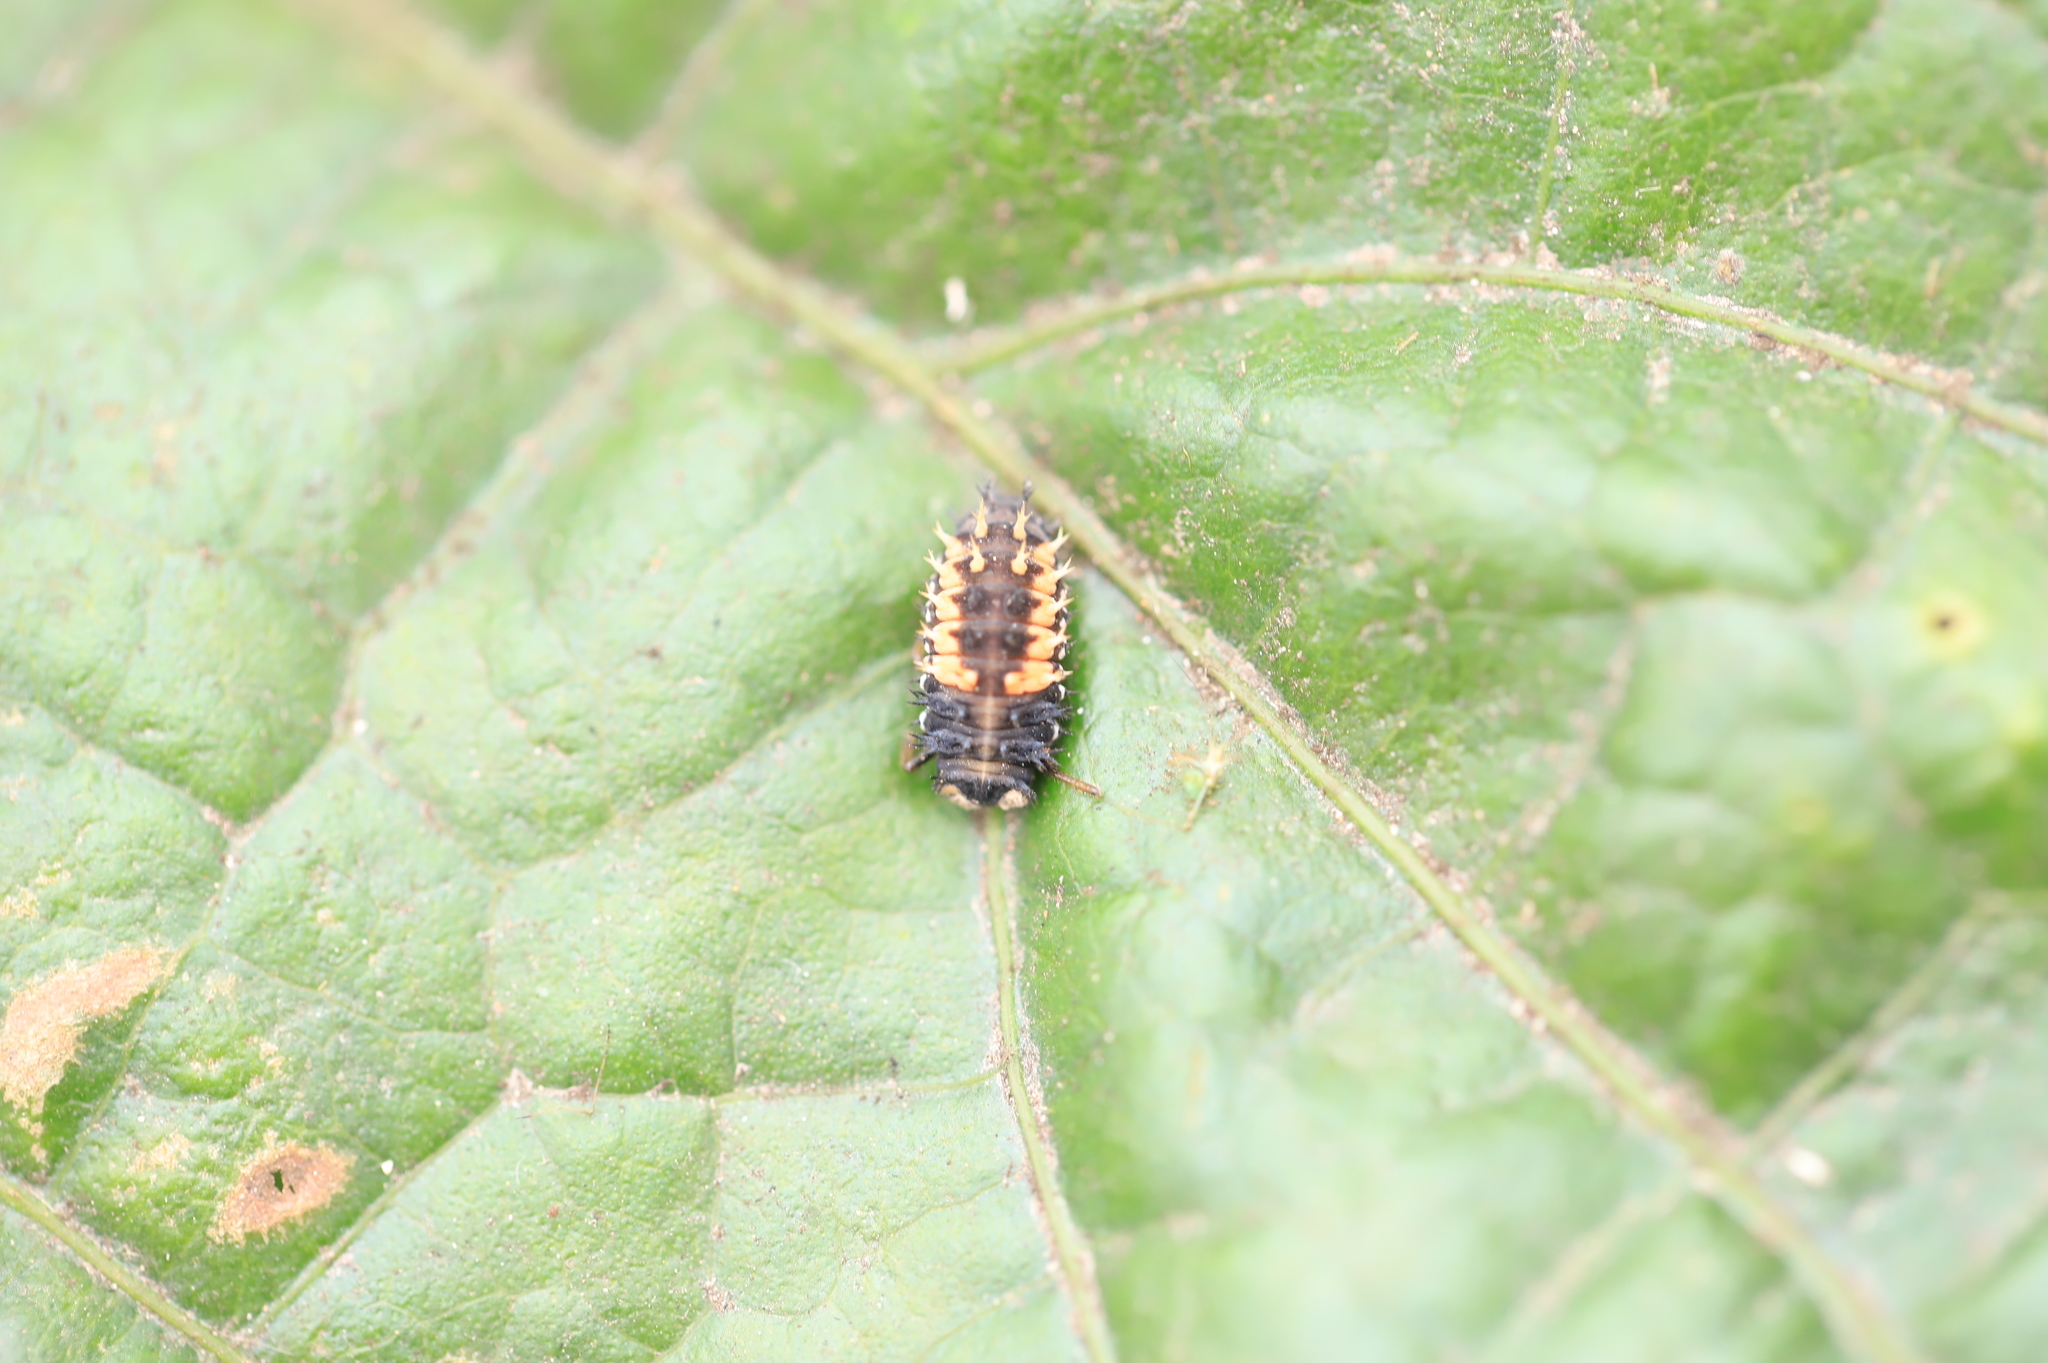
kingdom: Animalia
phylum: Arthropoda
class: Insecta
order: Coleoptera
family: Coccinellidae
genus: Harmonia
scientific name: Harmonia axyridis
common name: Harlequin ladybird
